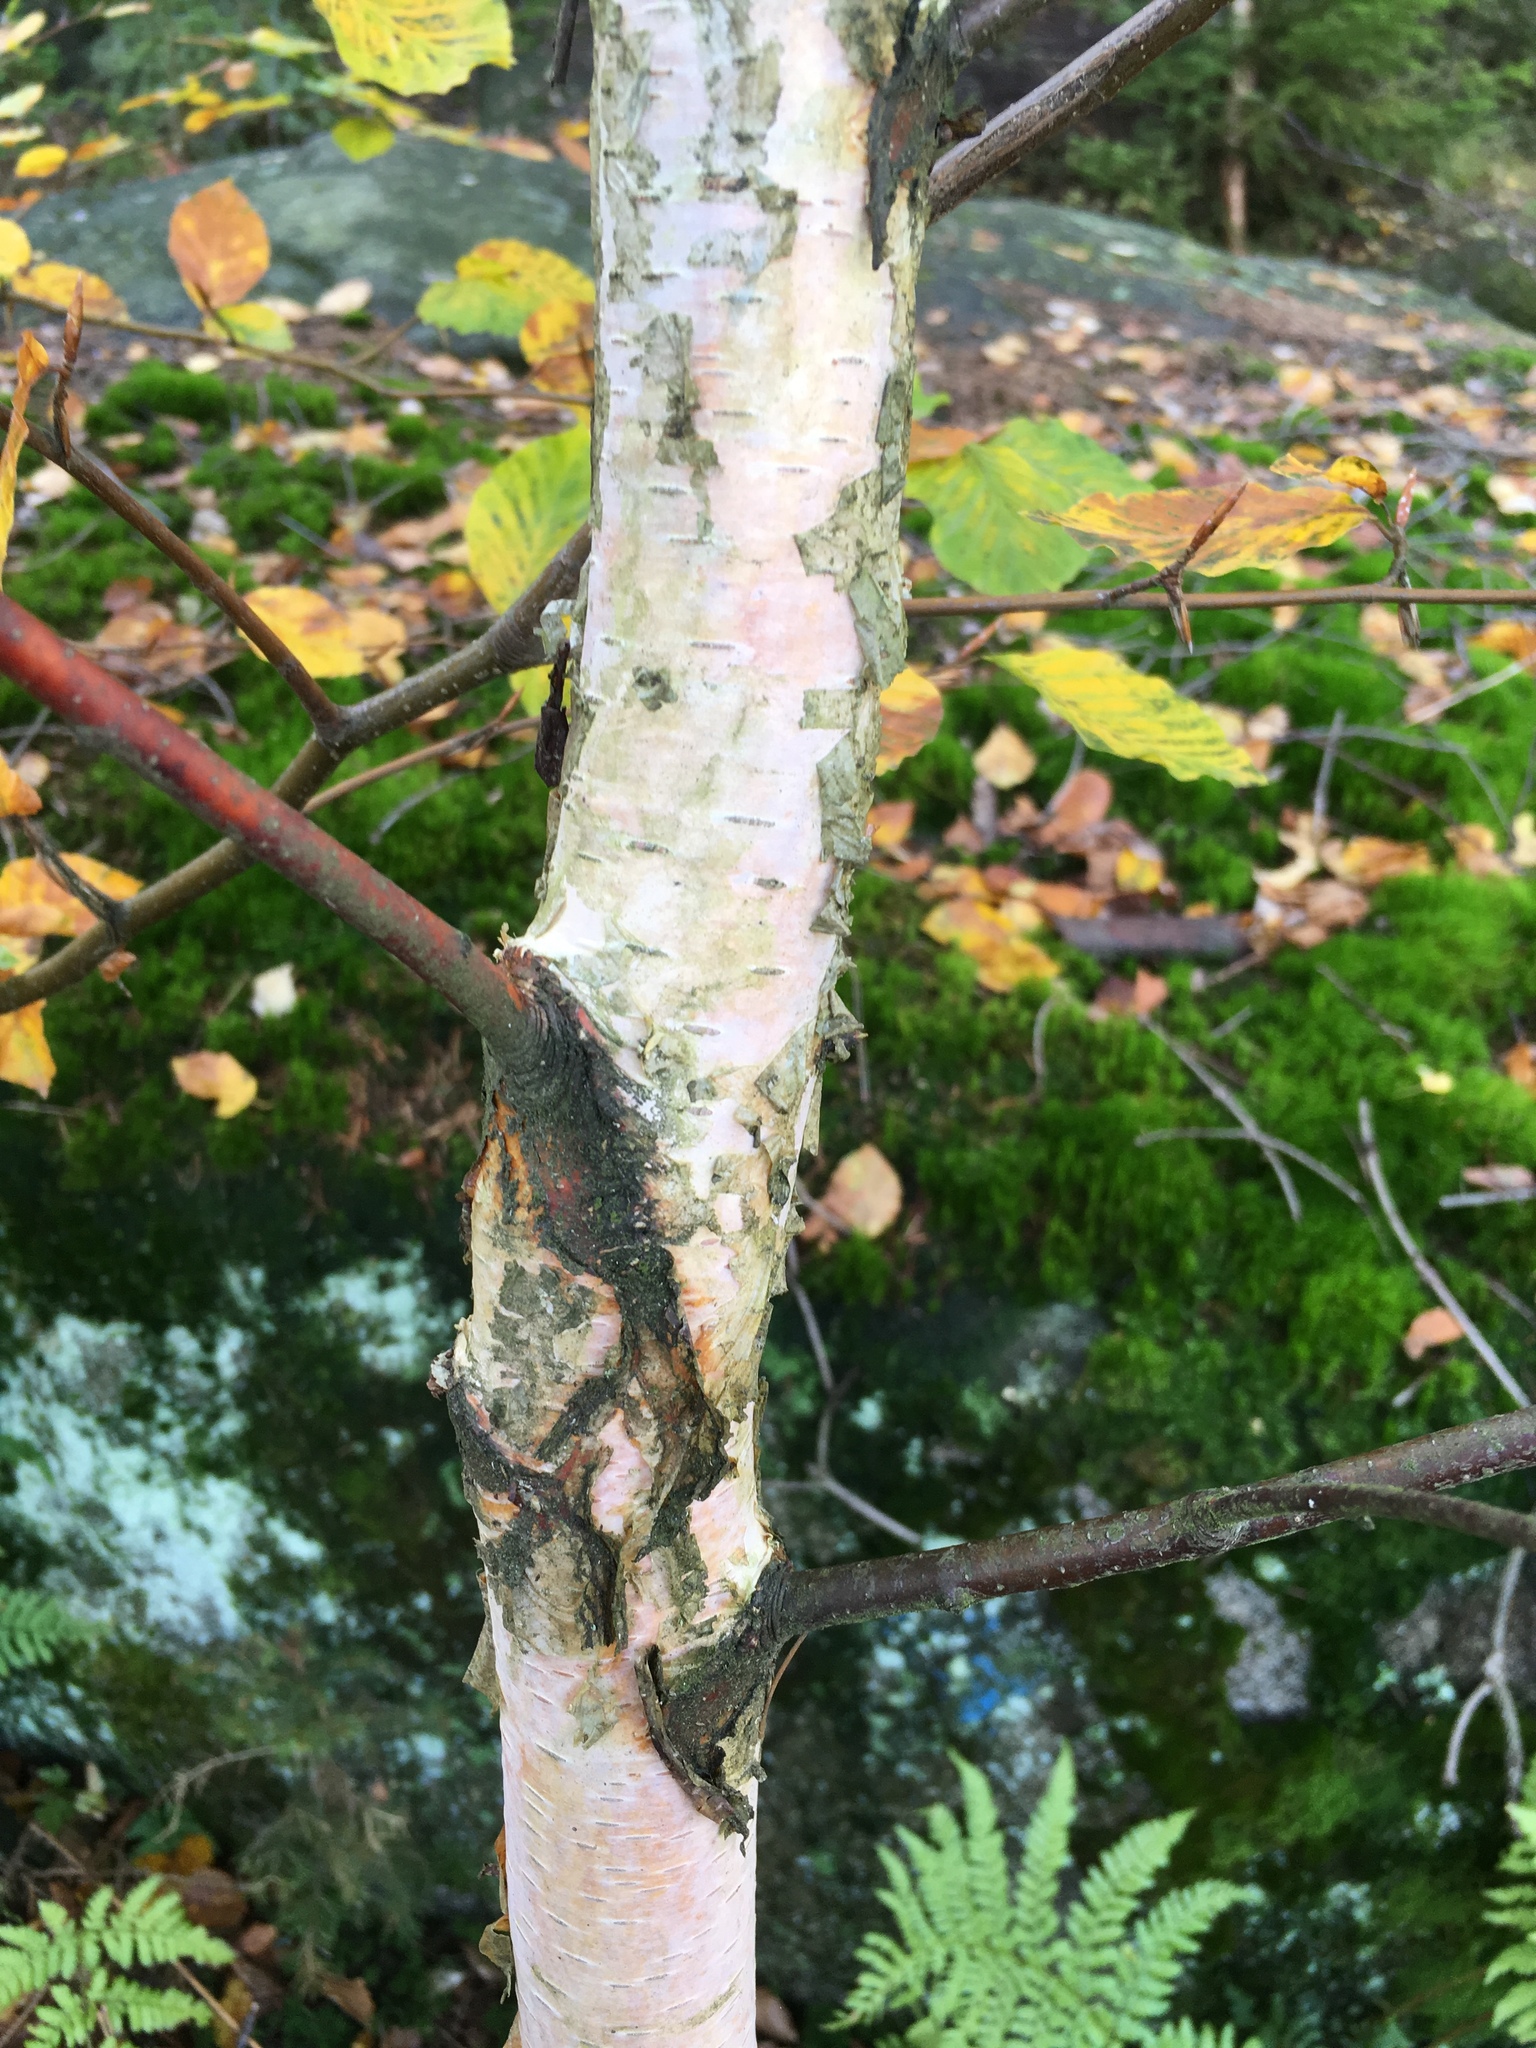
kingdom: Plantae
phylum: Tracheophyta
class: Magnoliopsida
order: Fagales
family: Fagaceae
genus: Fagus
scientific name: Fagus sylvatica
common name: Beech
